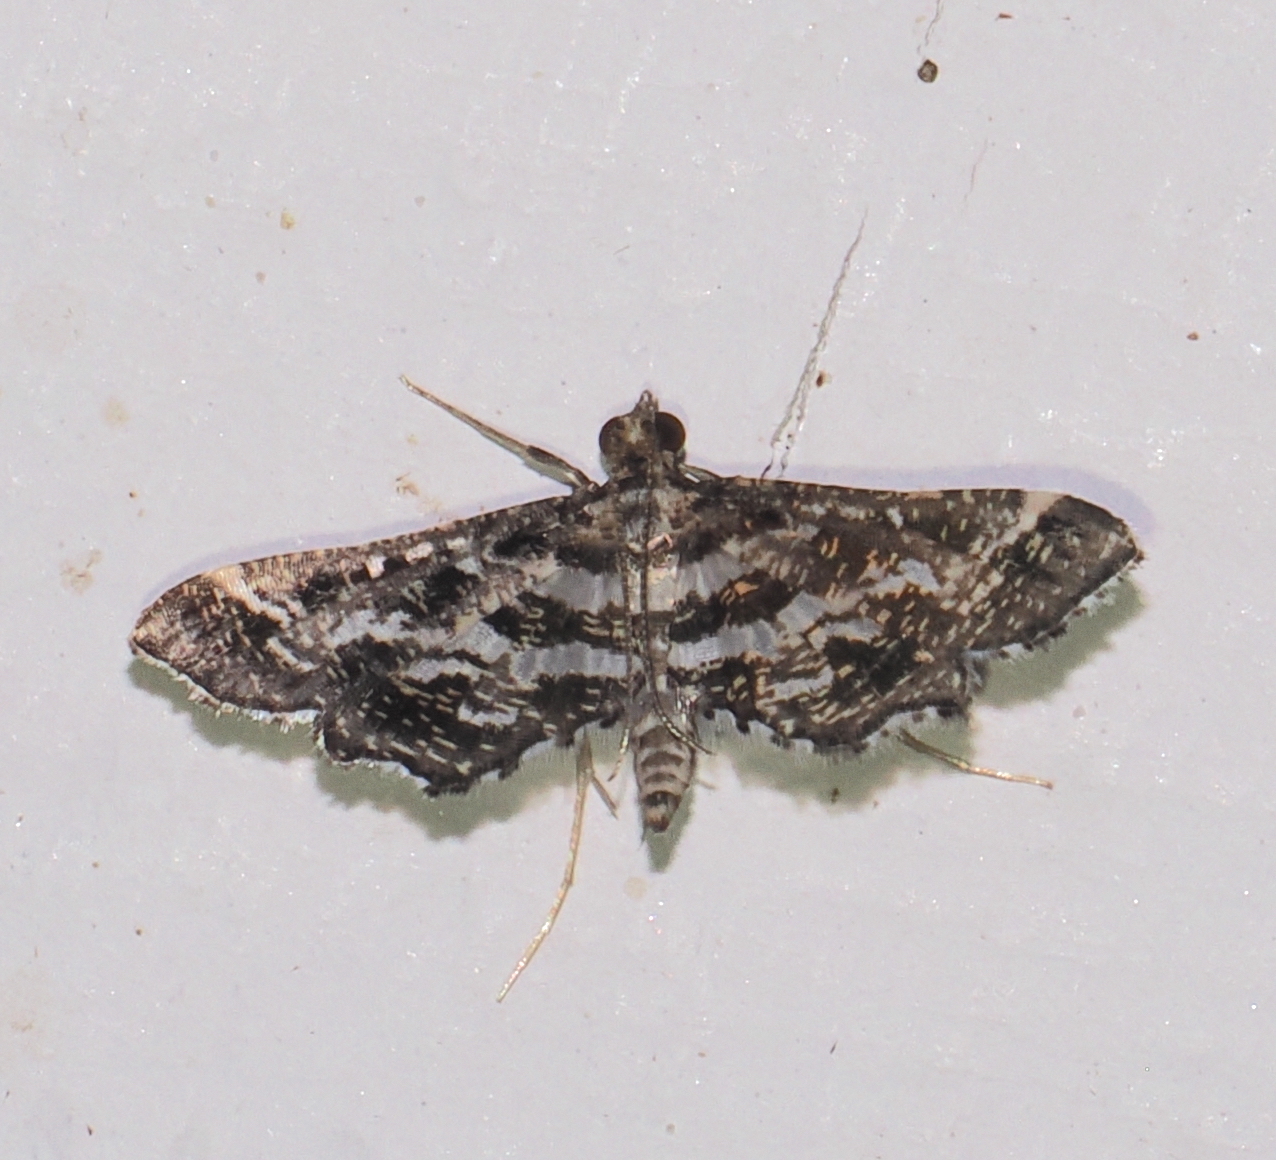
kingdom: Animalia
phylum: Arthropoda
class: Insecta
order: Lepidoptera
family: Crambidae
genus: Diasemiopsis
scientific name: Diasemiopsis ramburialis
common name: Vagrant china-mark
